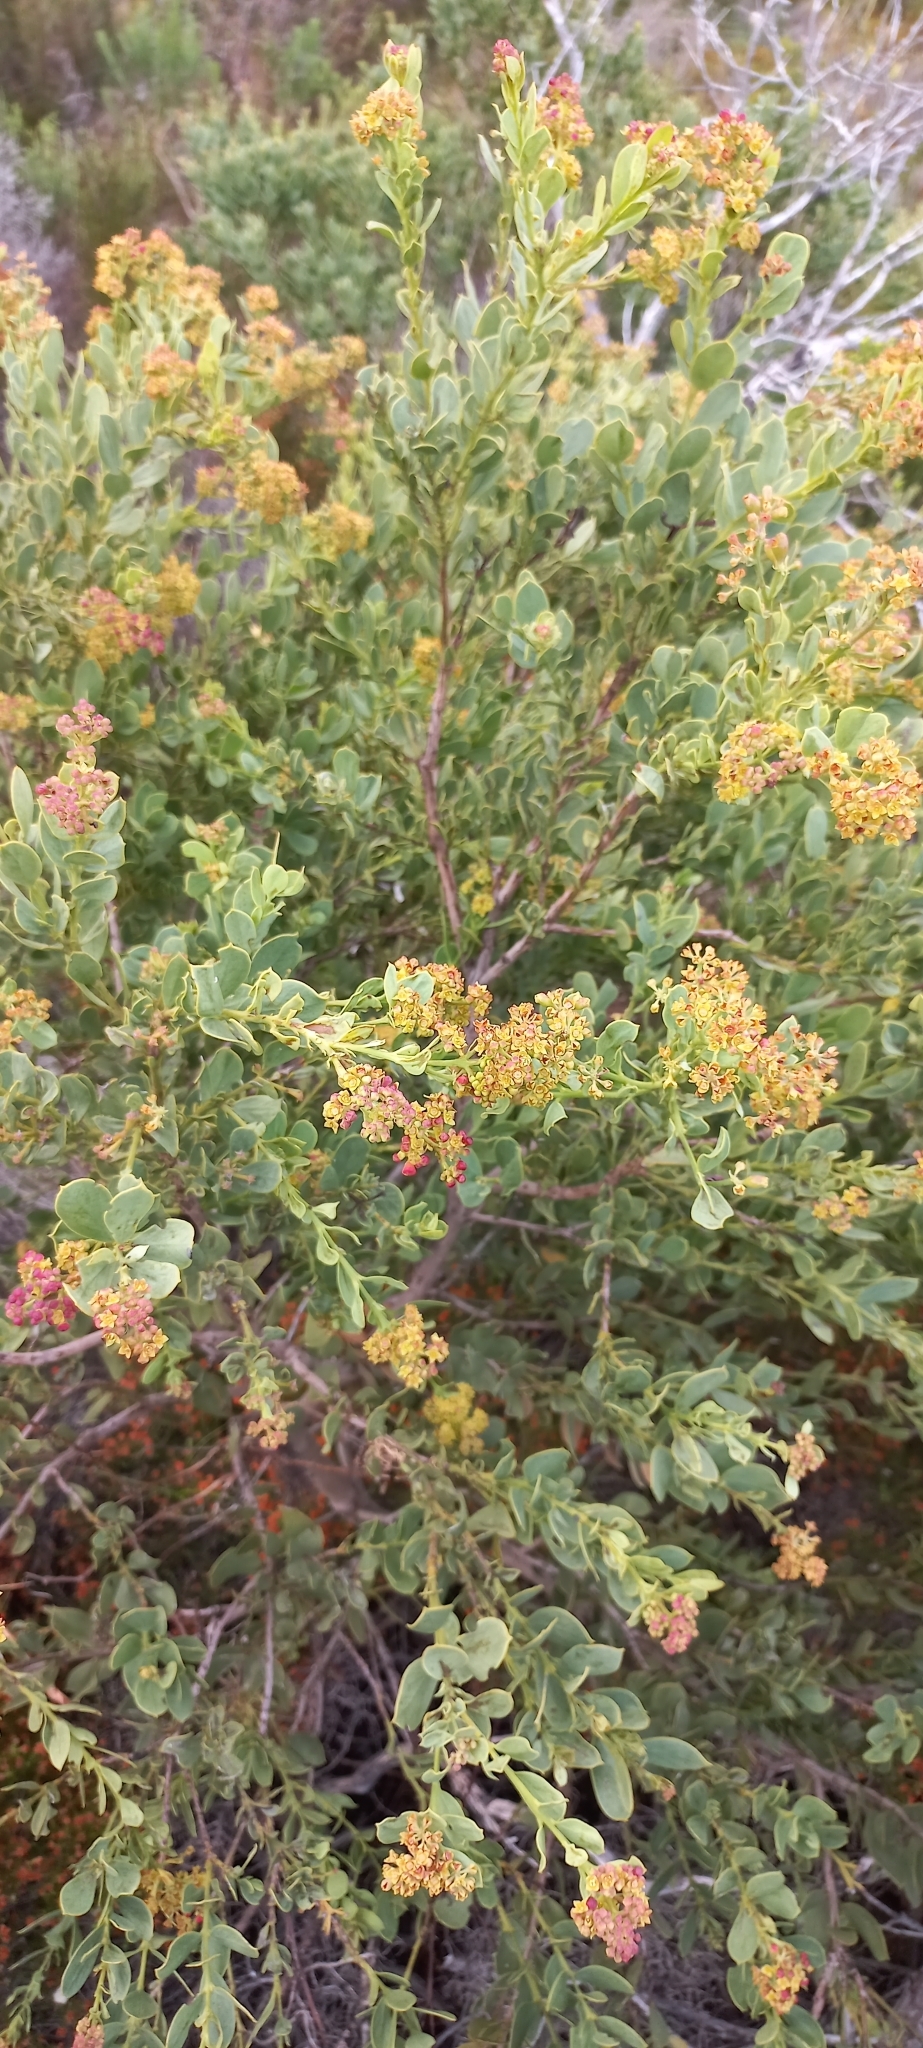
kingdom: Plantae
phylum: Tracheophyta
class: Magnoliopsida
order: Santalales
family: Santalaceae
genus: Osyris
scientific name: Osyris compressa
